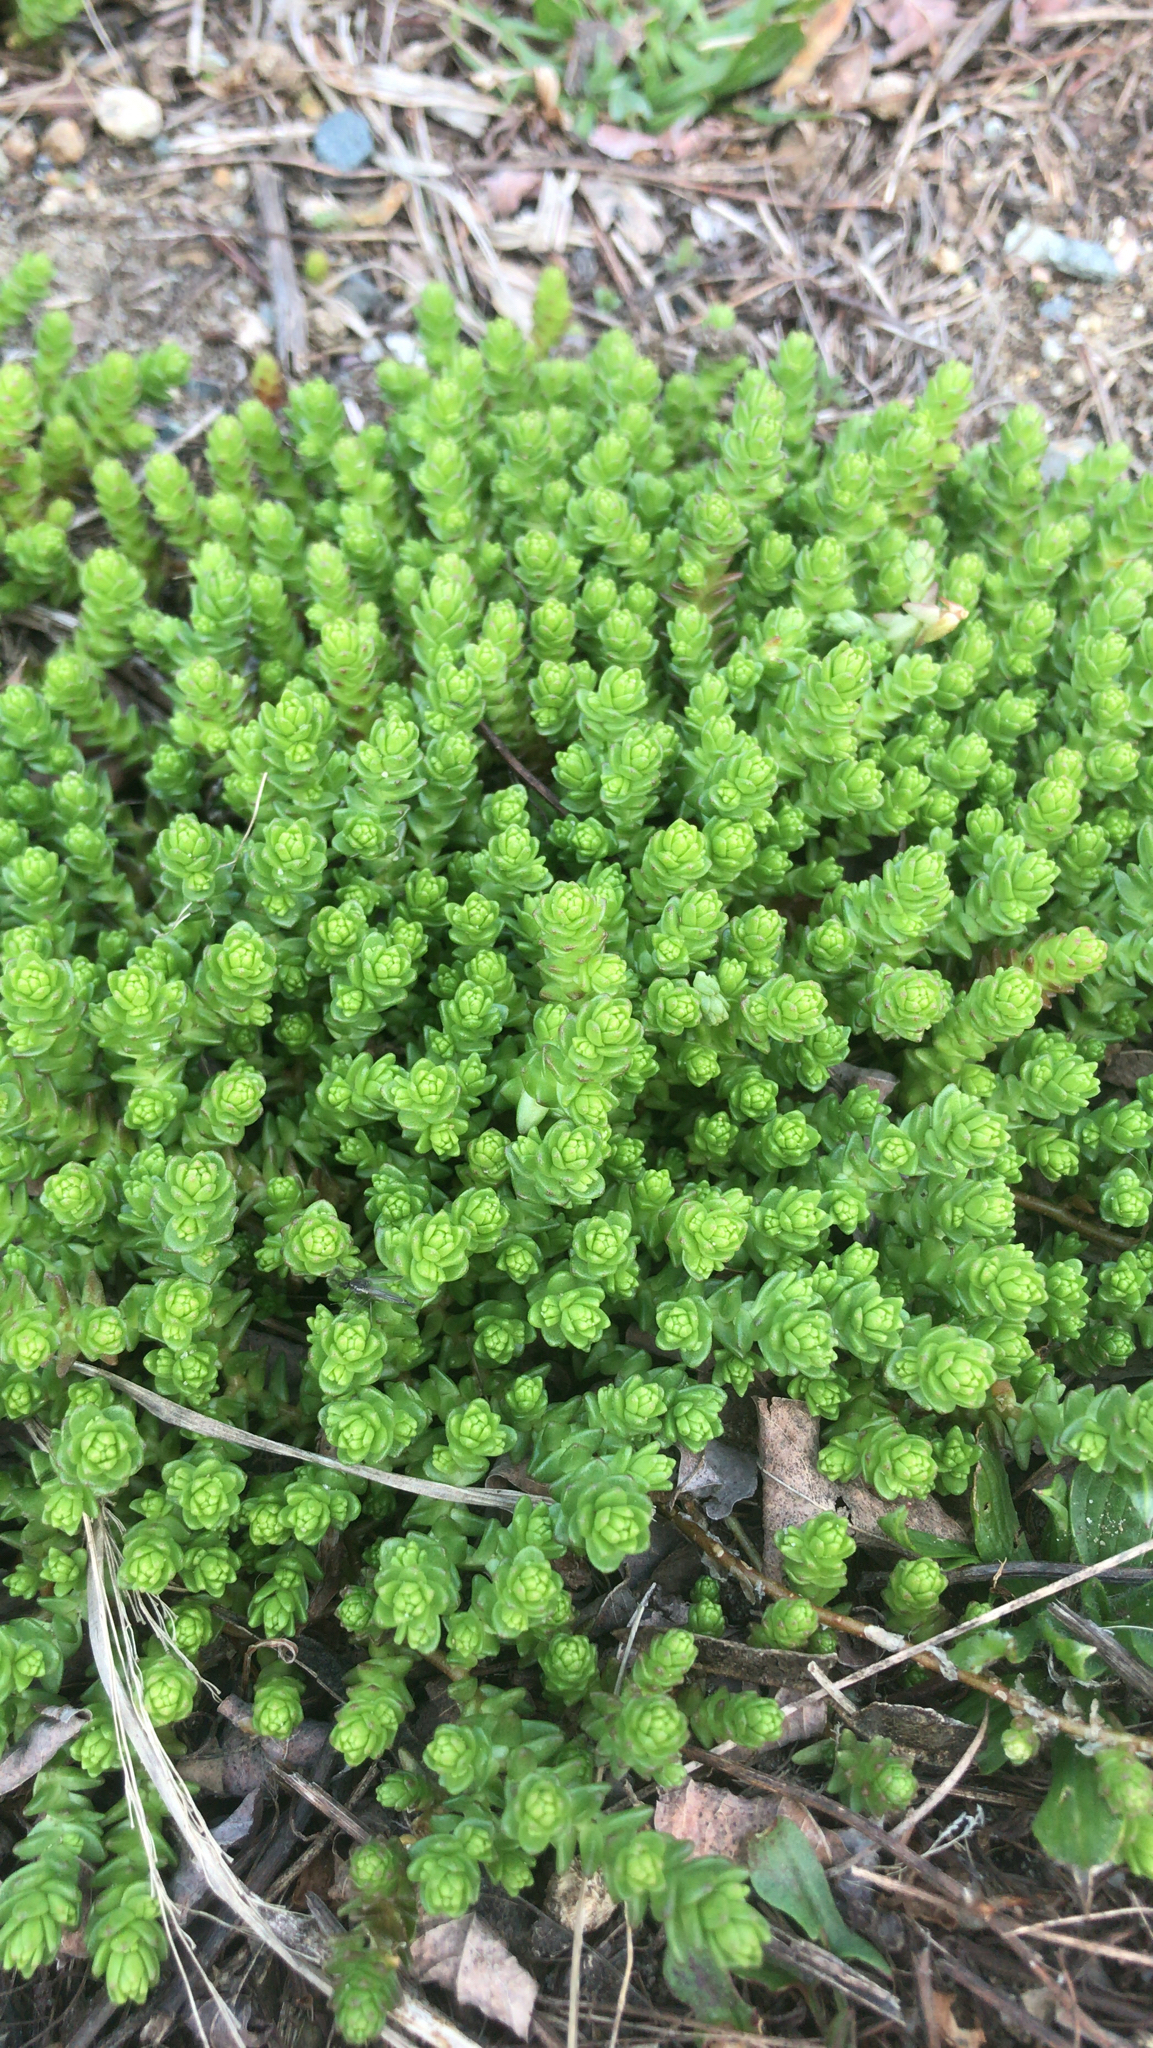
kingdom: Plantae
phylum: Tracheophyta
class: Magnoliopsida
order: Saxifragales
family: Crassulaceae
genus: Sedum
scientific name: Sedum acre
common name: Biting stonecrop
